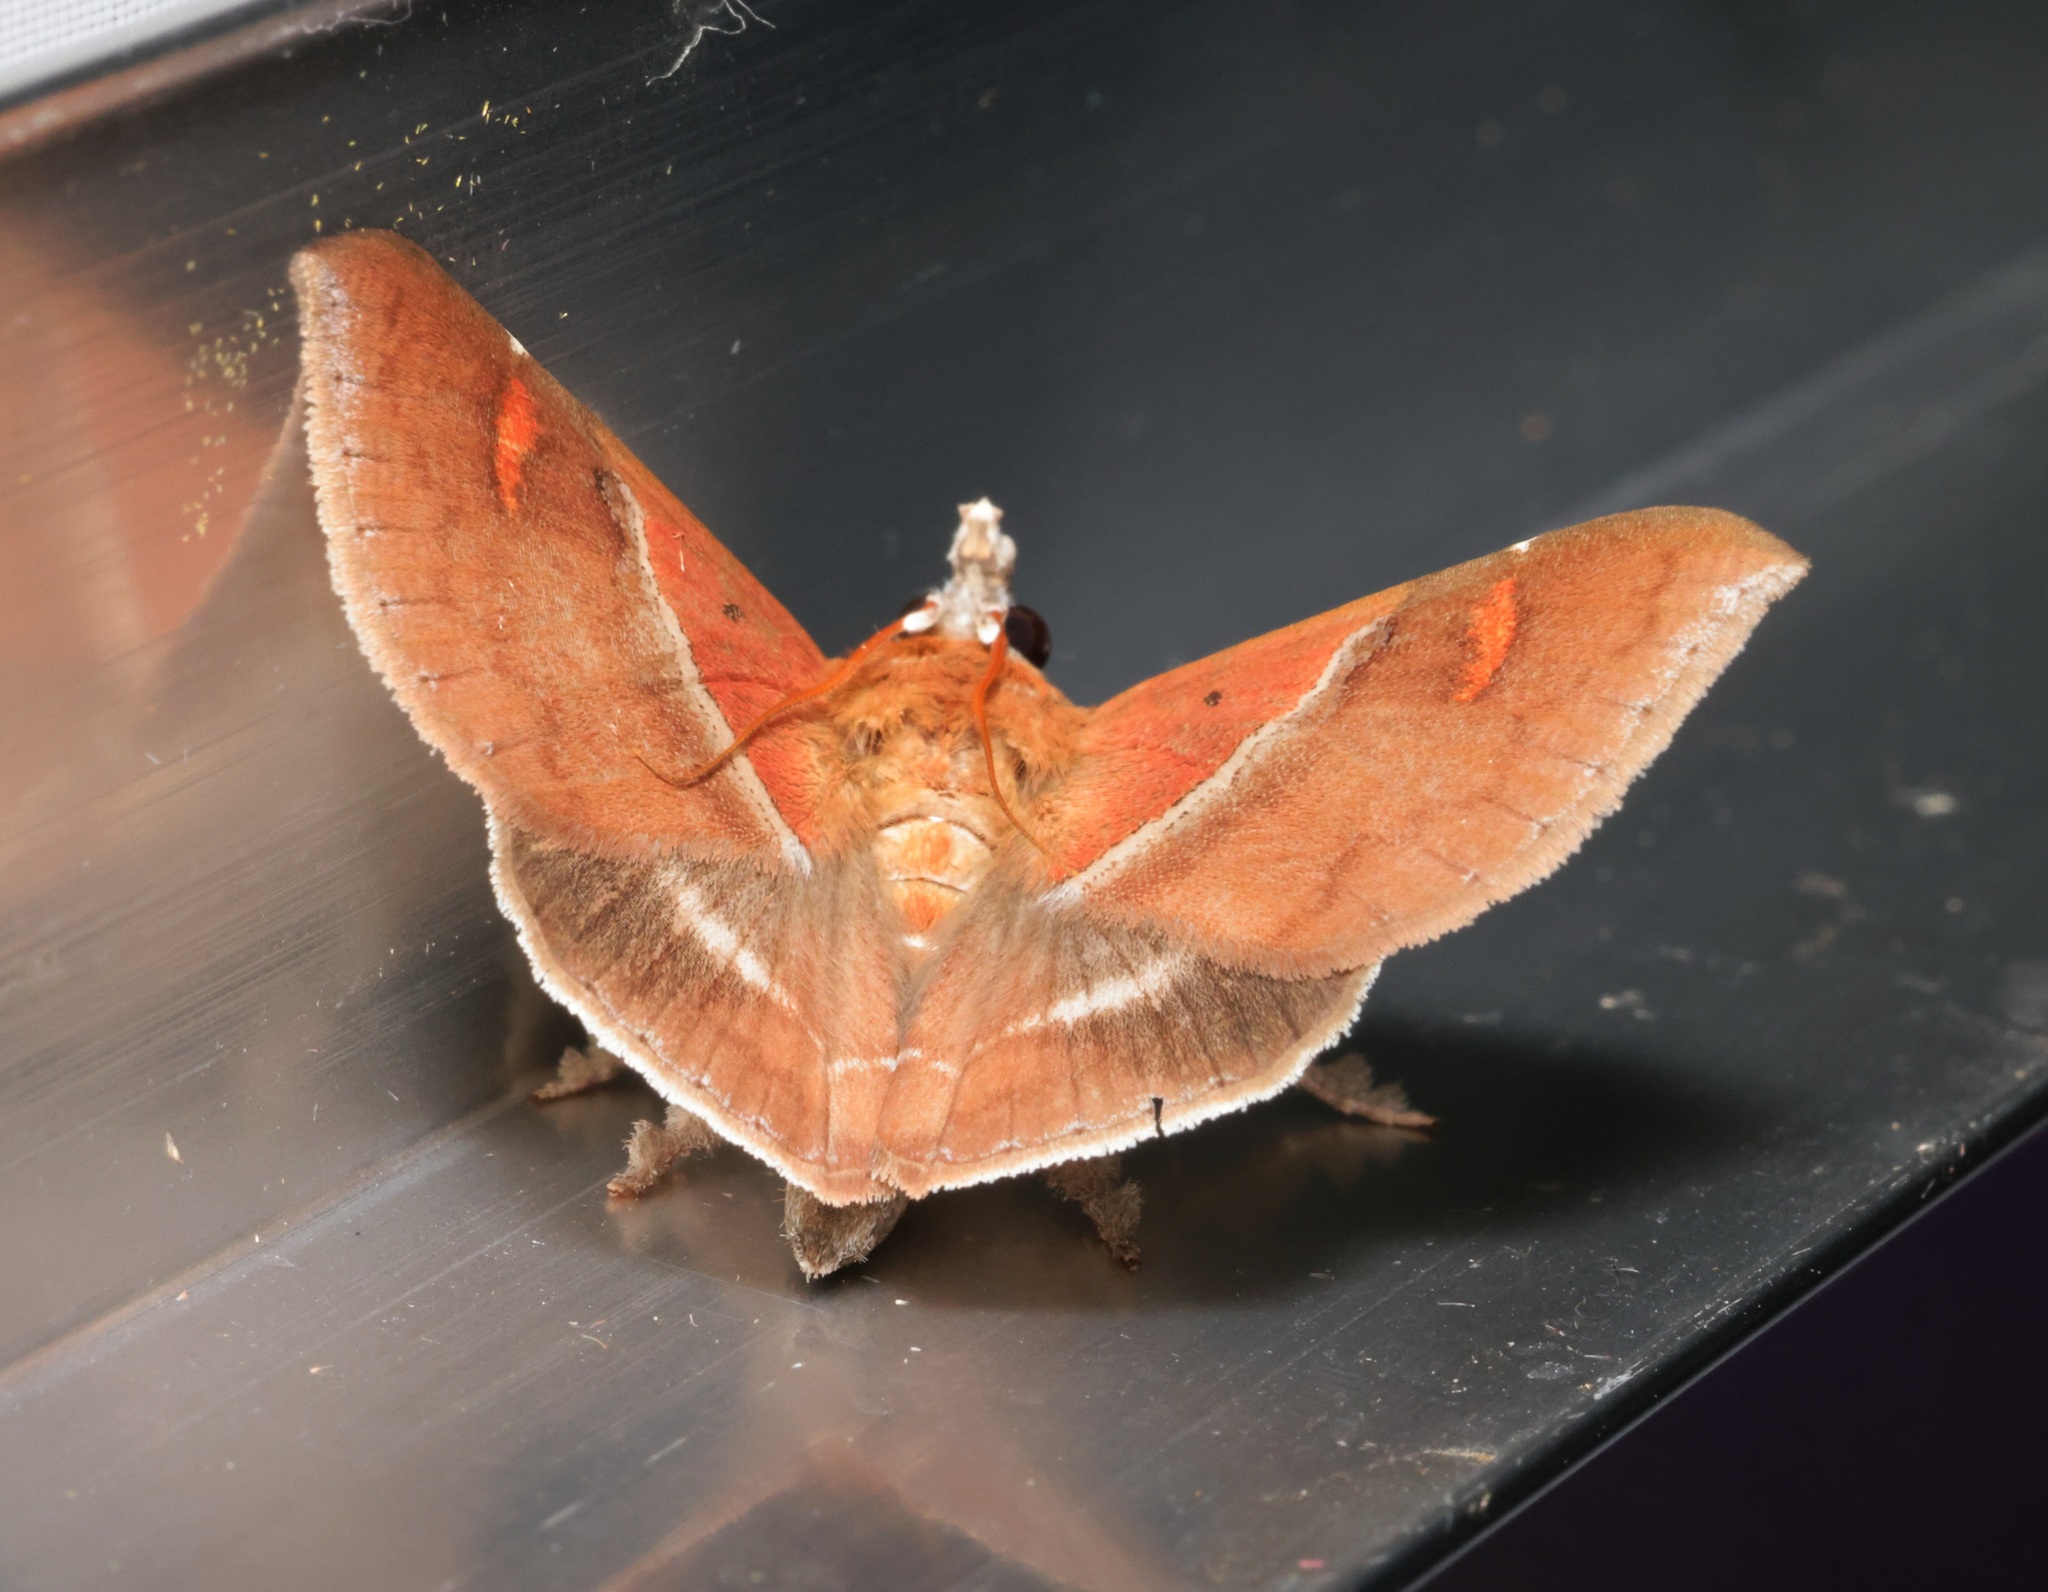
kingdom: Animalia
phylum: Arthropoda
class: Insecta
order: Lepidoptera
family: Erebidae
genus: Sympis
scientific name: Sympis rufibasis
